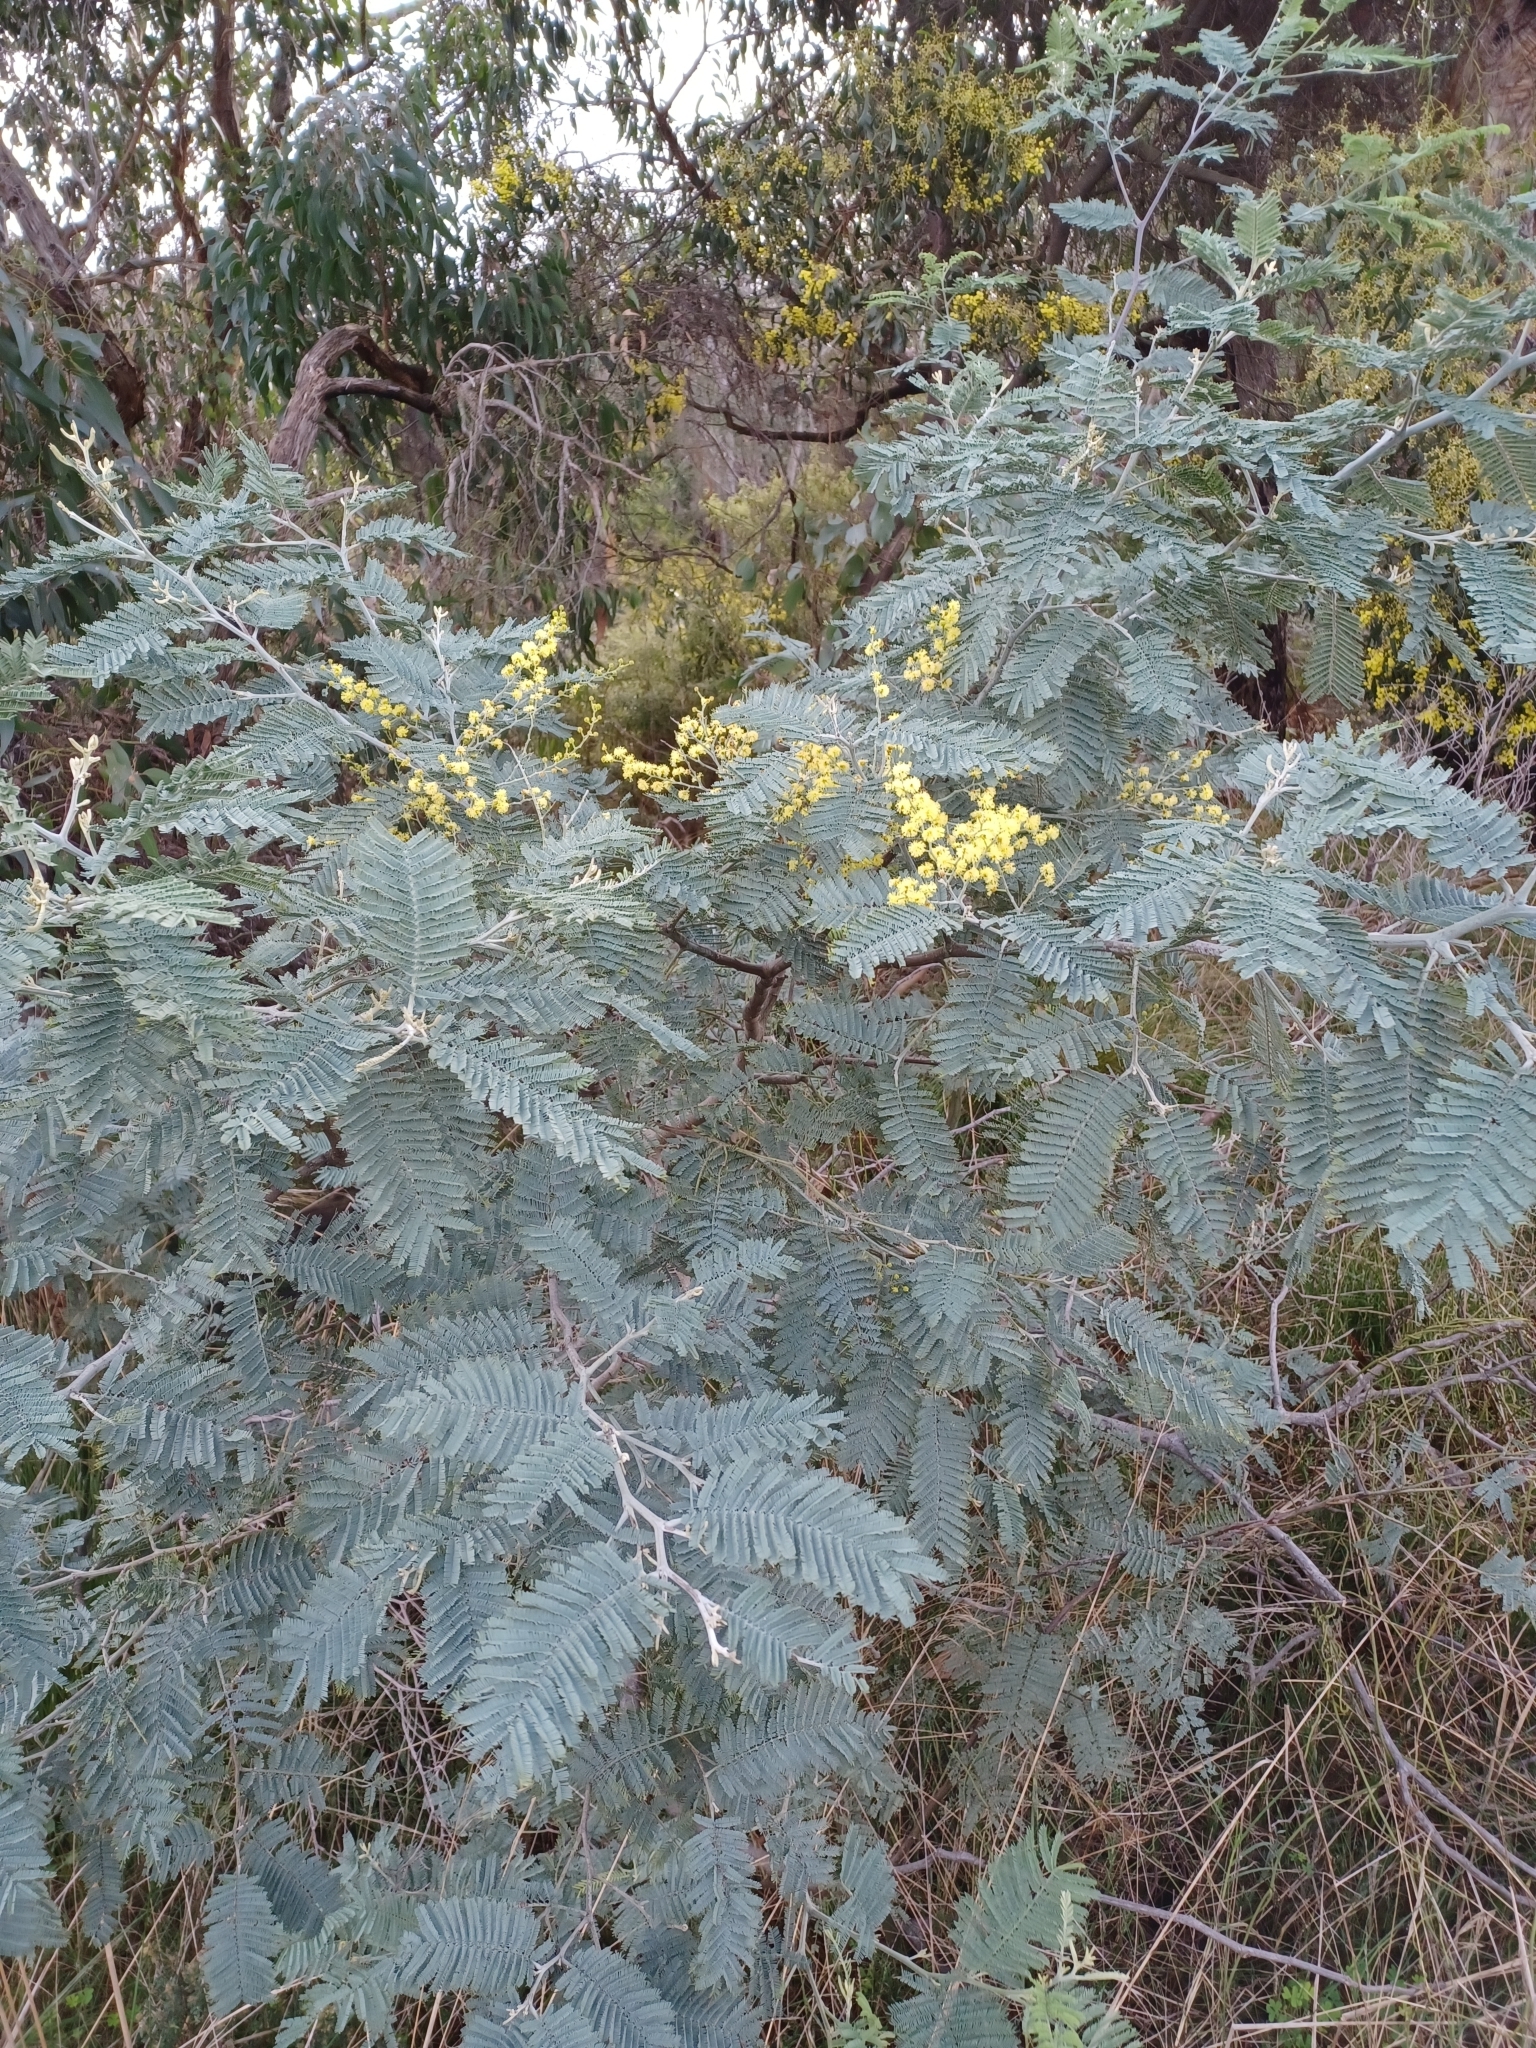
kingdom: Plantae
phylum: Tracheophyta
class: Magnoliopsida
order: Fabales
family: Fabaceae
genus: Acacia
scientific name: Acacia dealbata
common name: Silver wattle
